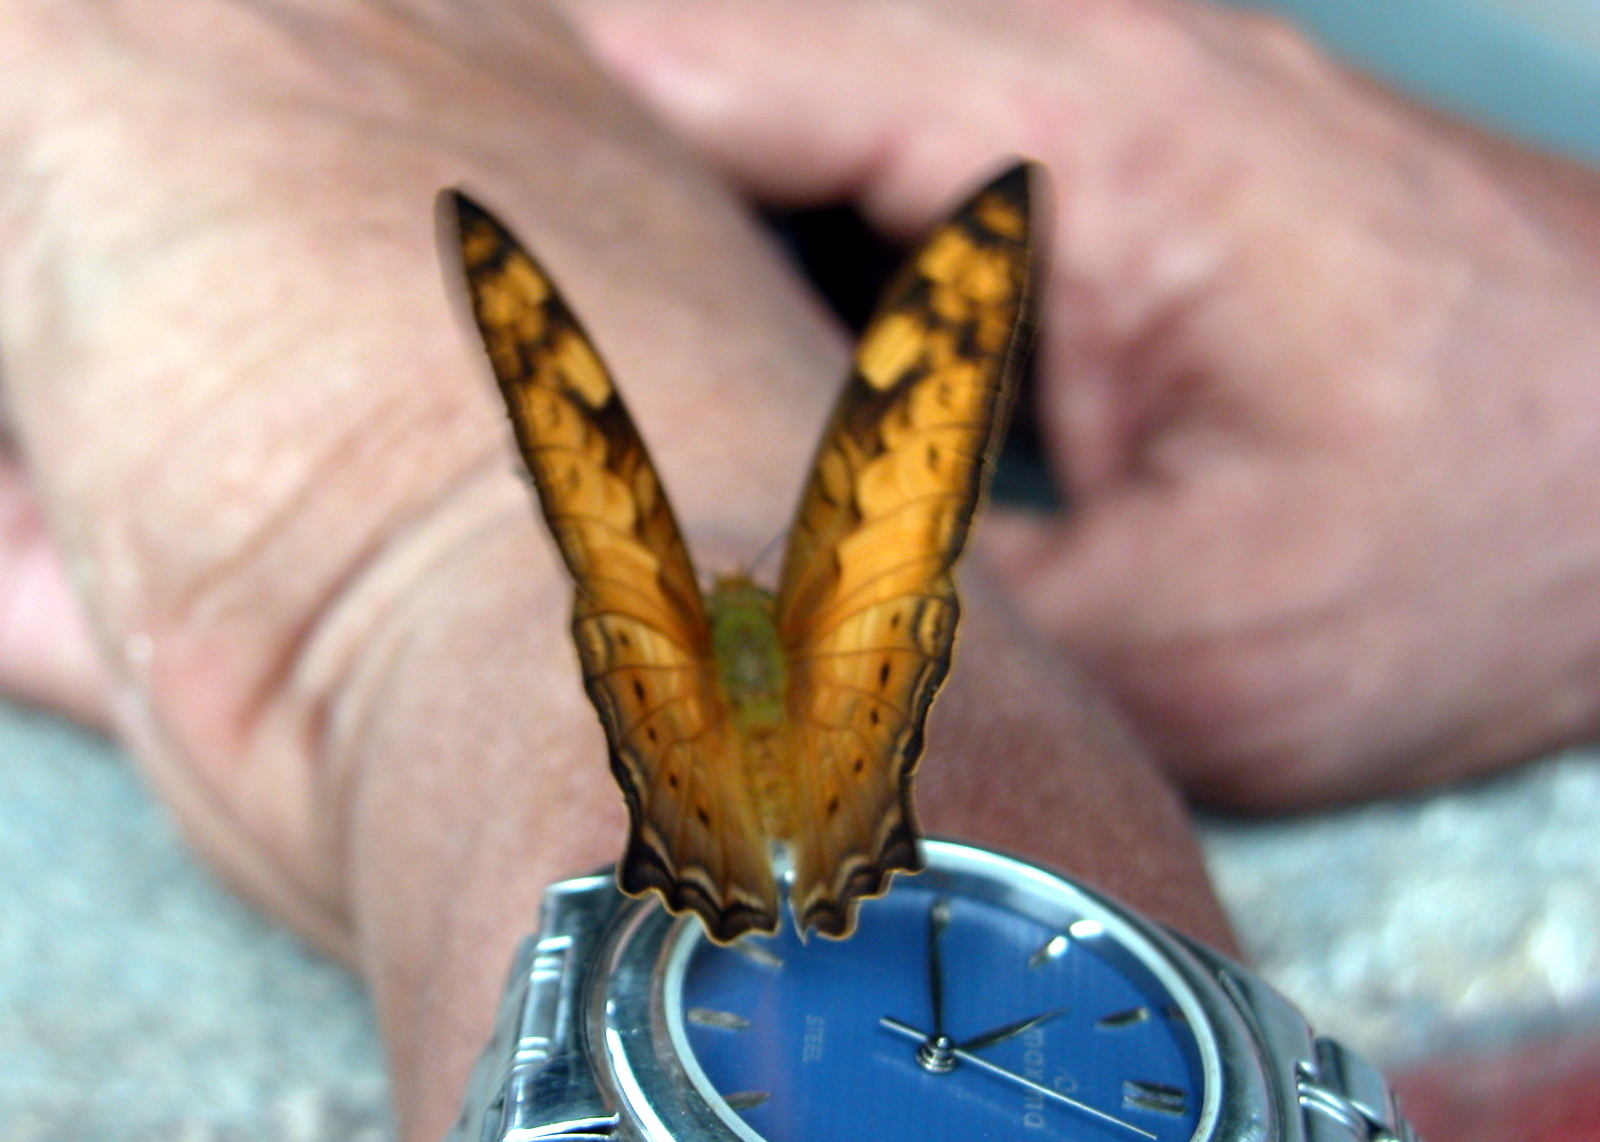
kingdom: Animalia
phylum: Arthropoda
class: Insecta
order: Lepidoptera
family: Nymphalidae
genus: Vagrans
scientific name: Vagrans sinha
